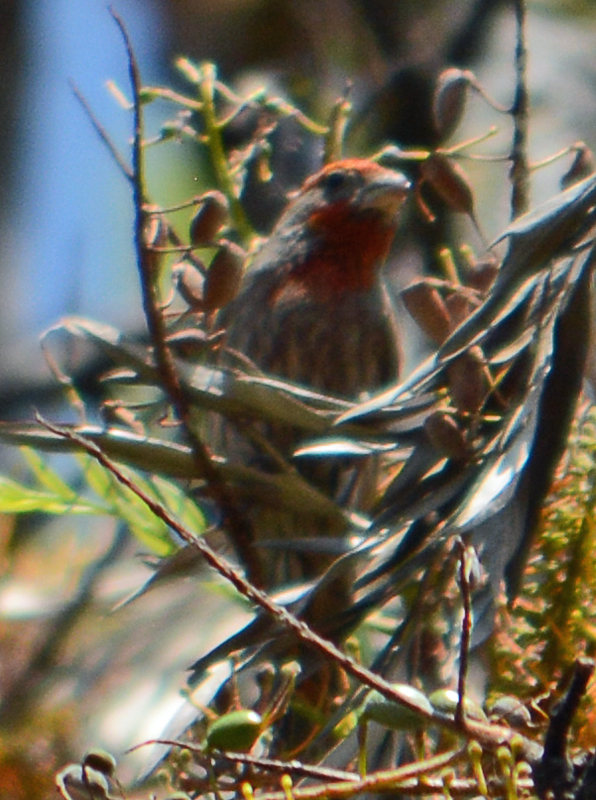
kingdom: Animalia
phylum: Chordata
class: Aves
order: Passeriformes
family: Fringillidae
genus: Haemorhous
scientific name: Haemorhous mexicanus
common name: House finch
